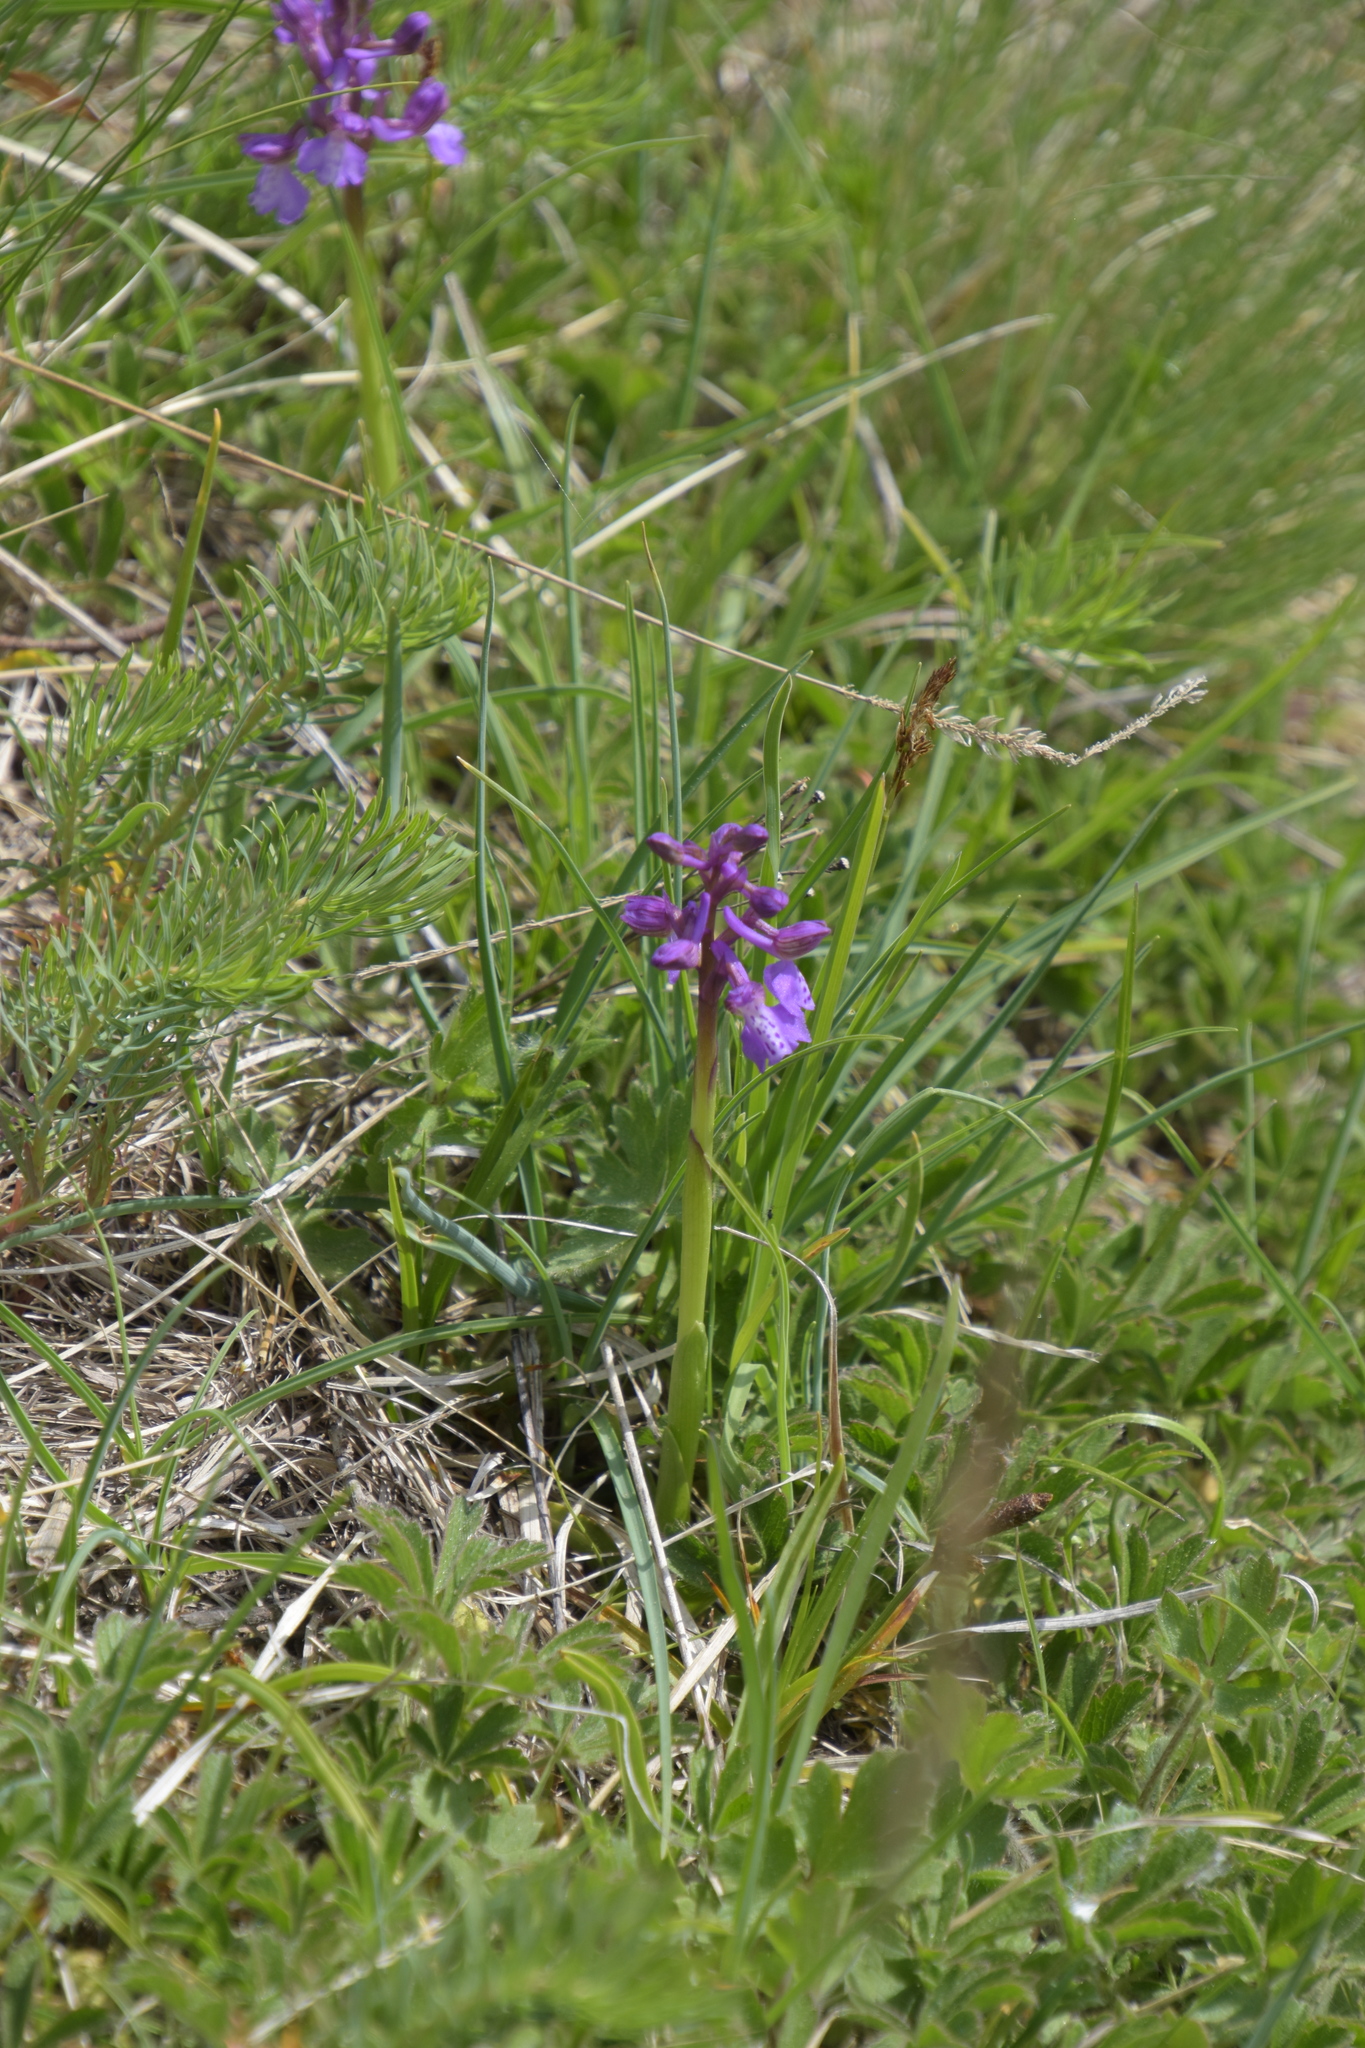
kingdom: Plantae
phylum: Tracheophyta
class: Liliopsida
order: Asparagales
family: Orchidaceae
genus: Anacamptis
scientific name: Anacamptis morio
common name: Green-winged orchid
